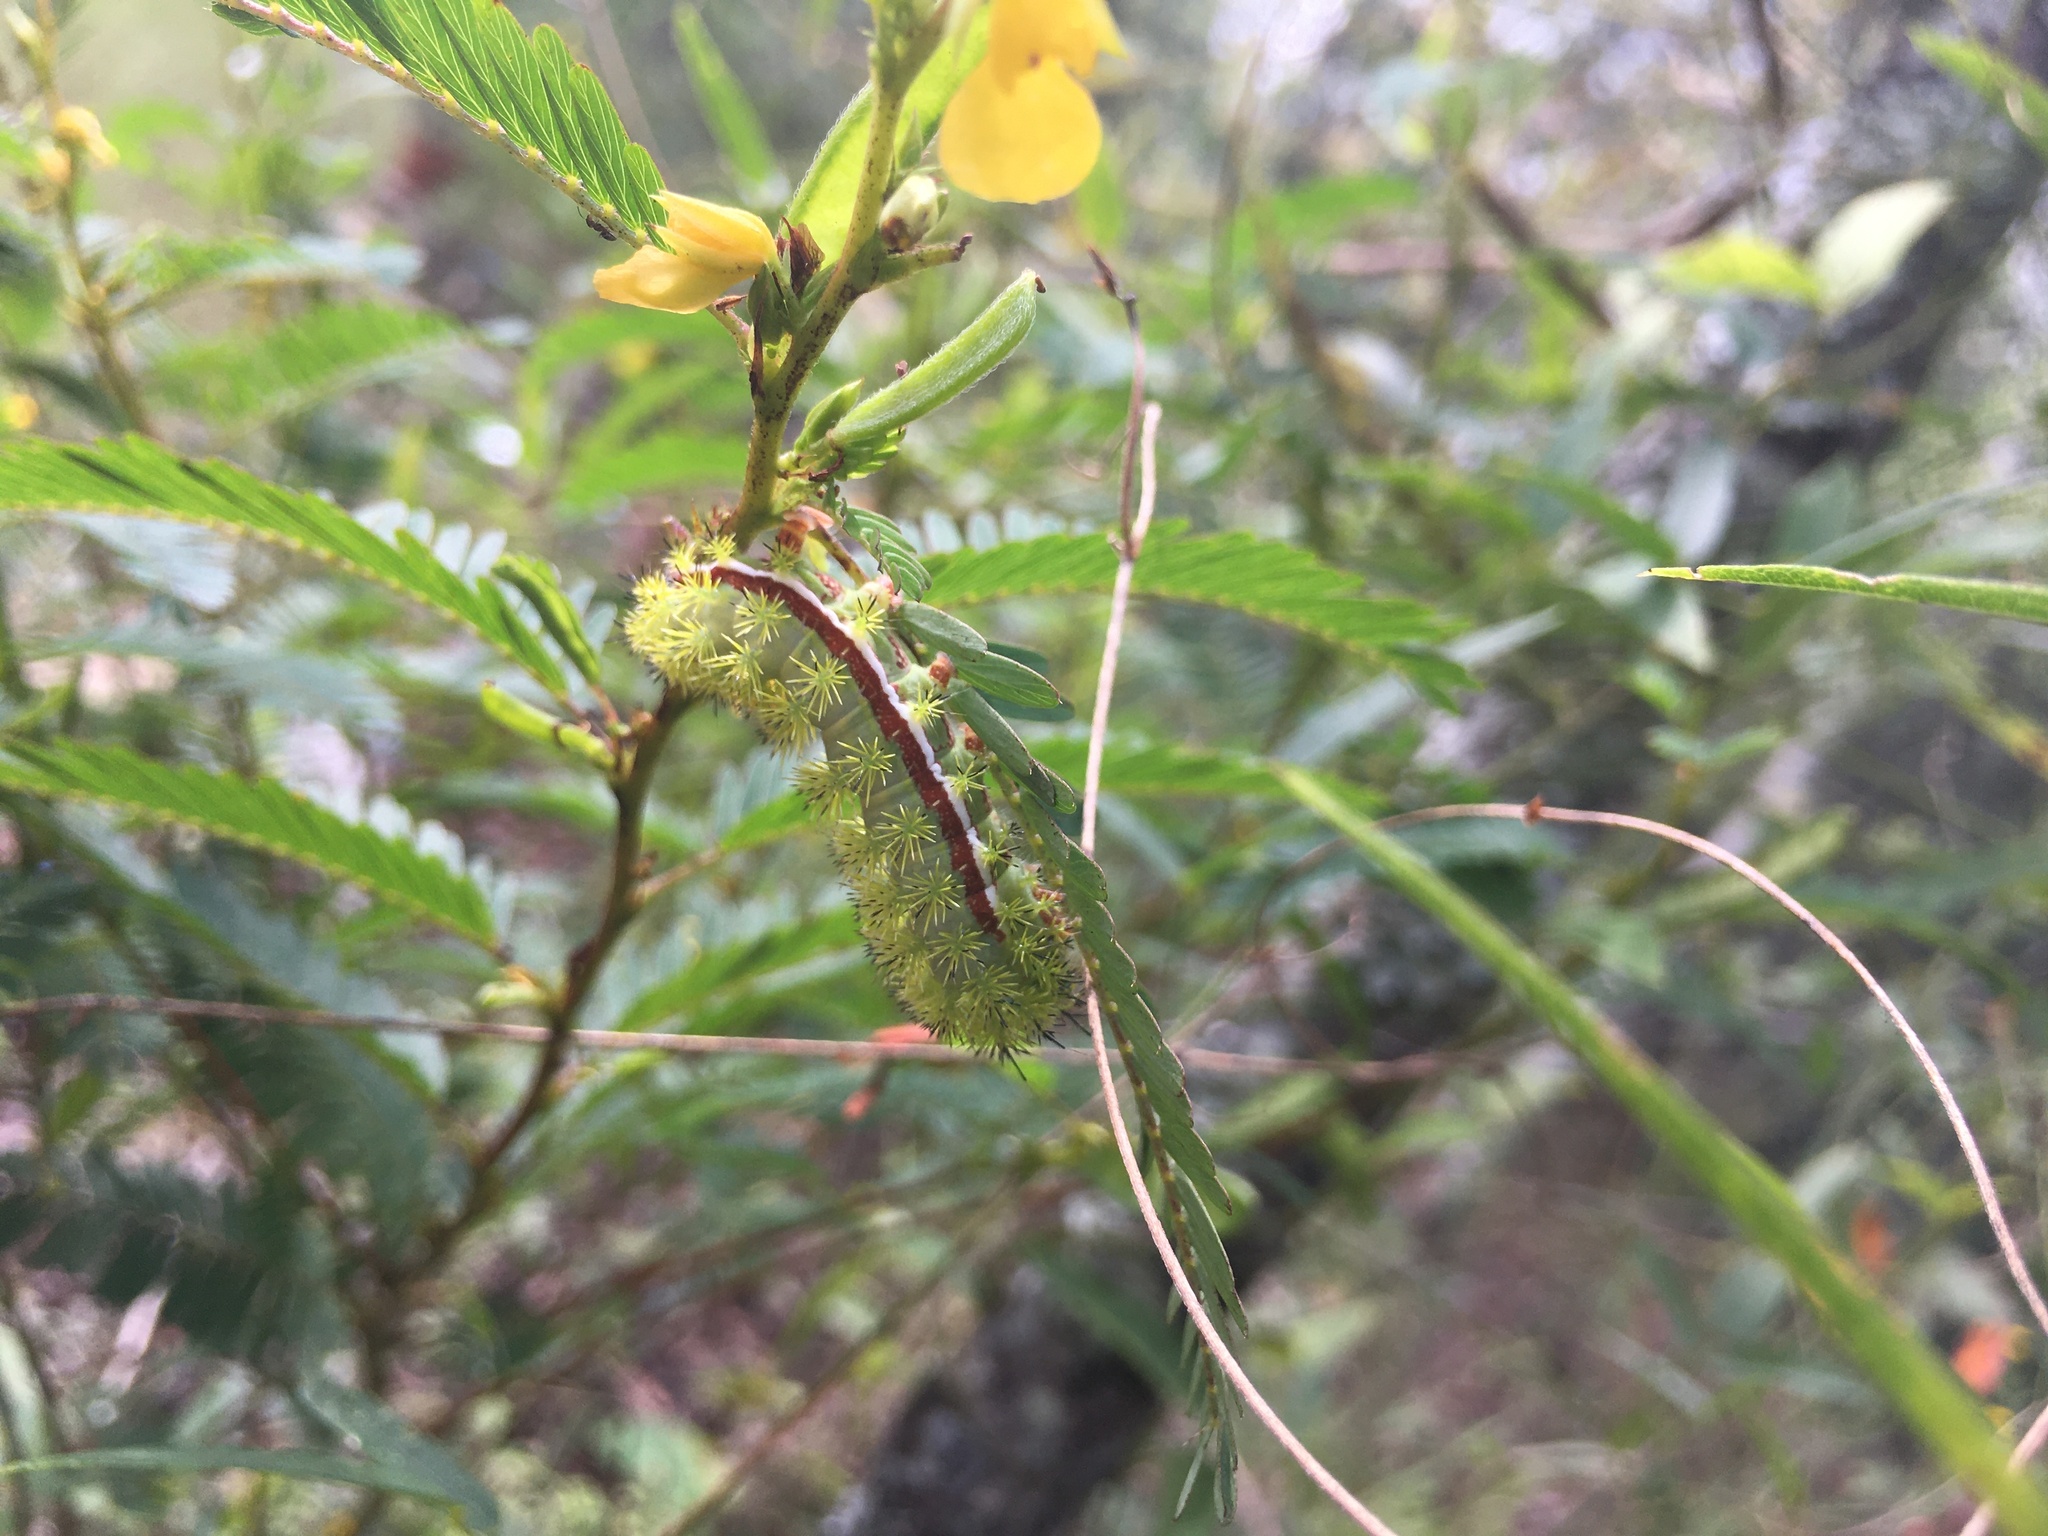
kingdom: Animalia
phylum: Arthropoda
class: Insecta
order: Lepidoptera
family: Saturniidae
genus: Automeris
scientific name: Automeris io
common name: Io moth
